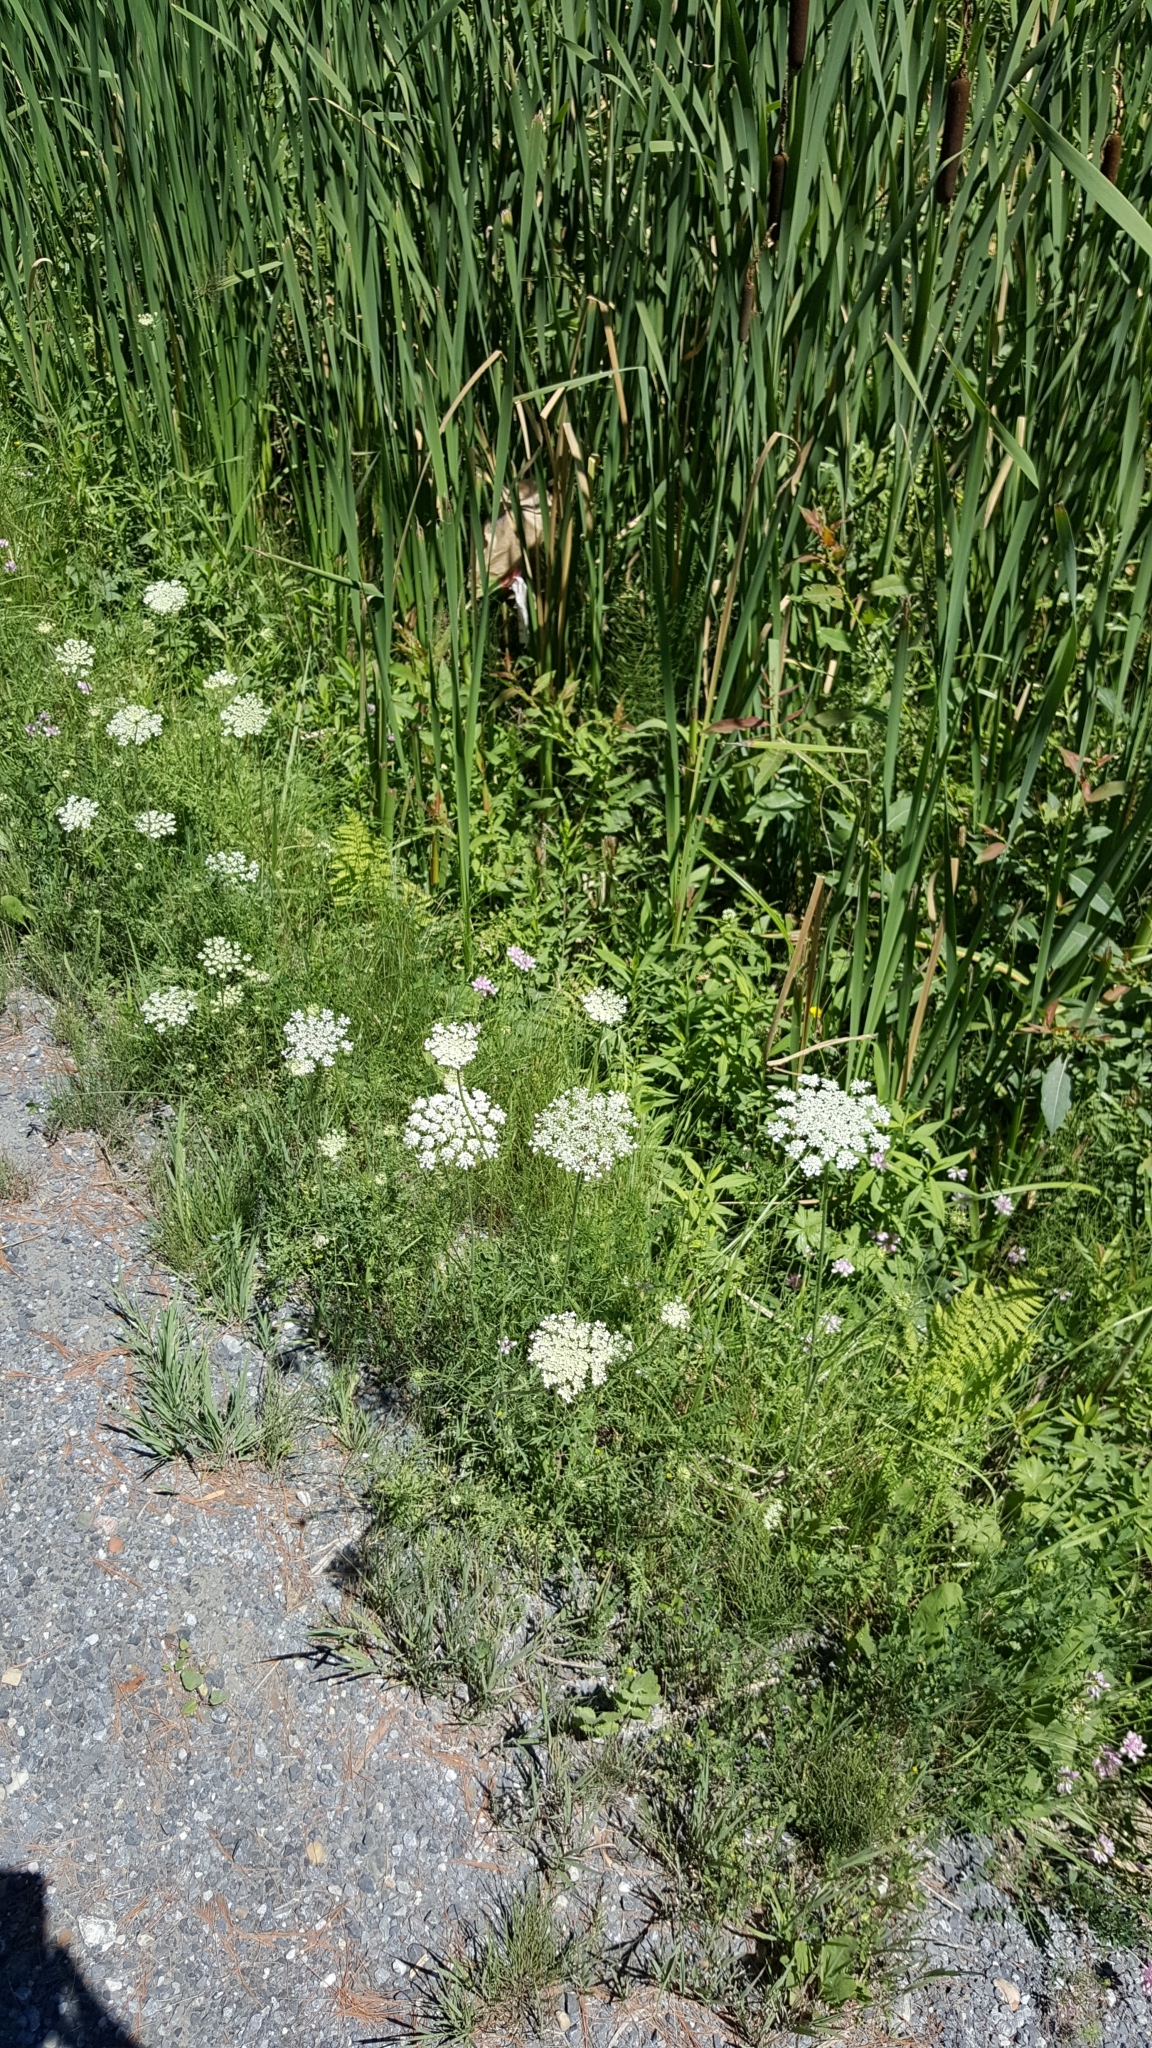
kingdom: Plantae
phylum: Tracheophyta
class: Magnoliopsida
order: Apiales
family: Apiaceae
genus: Daucus
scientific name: Daucus carota
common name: Wild carrot
